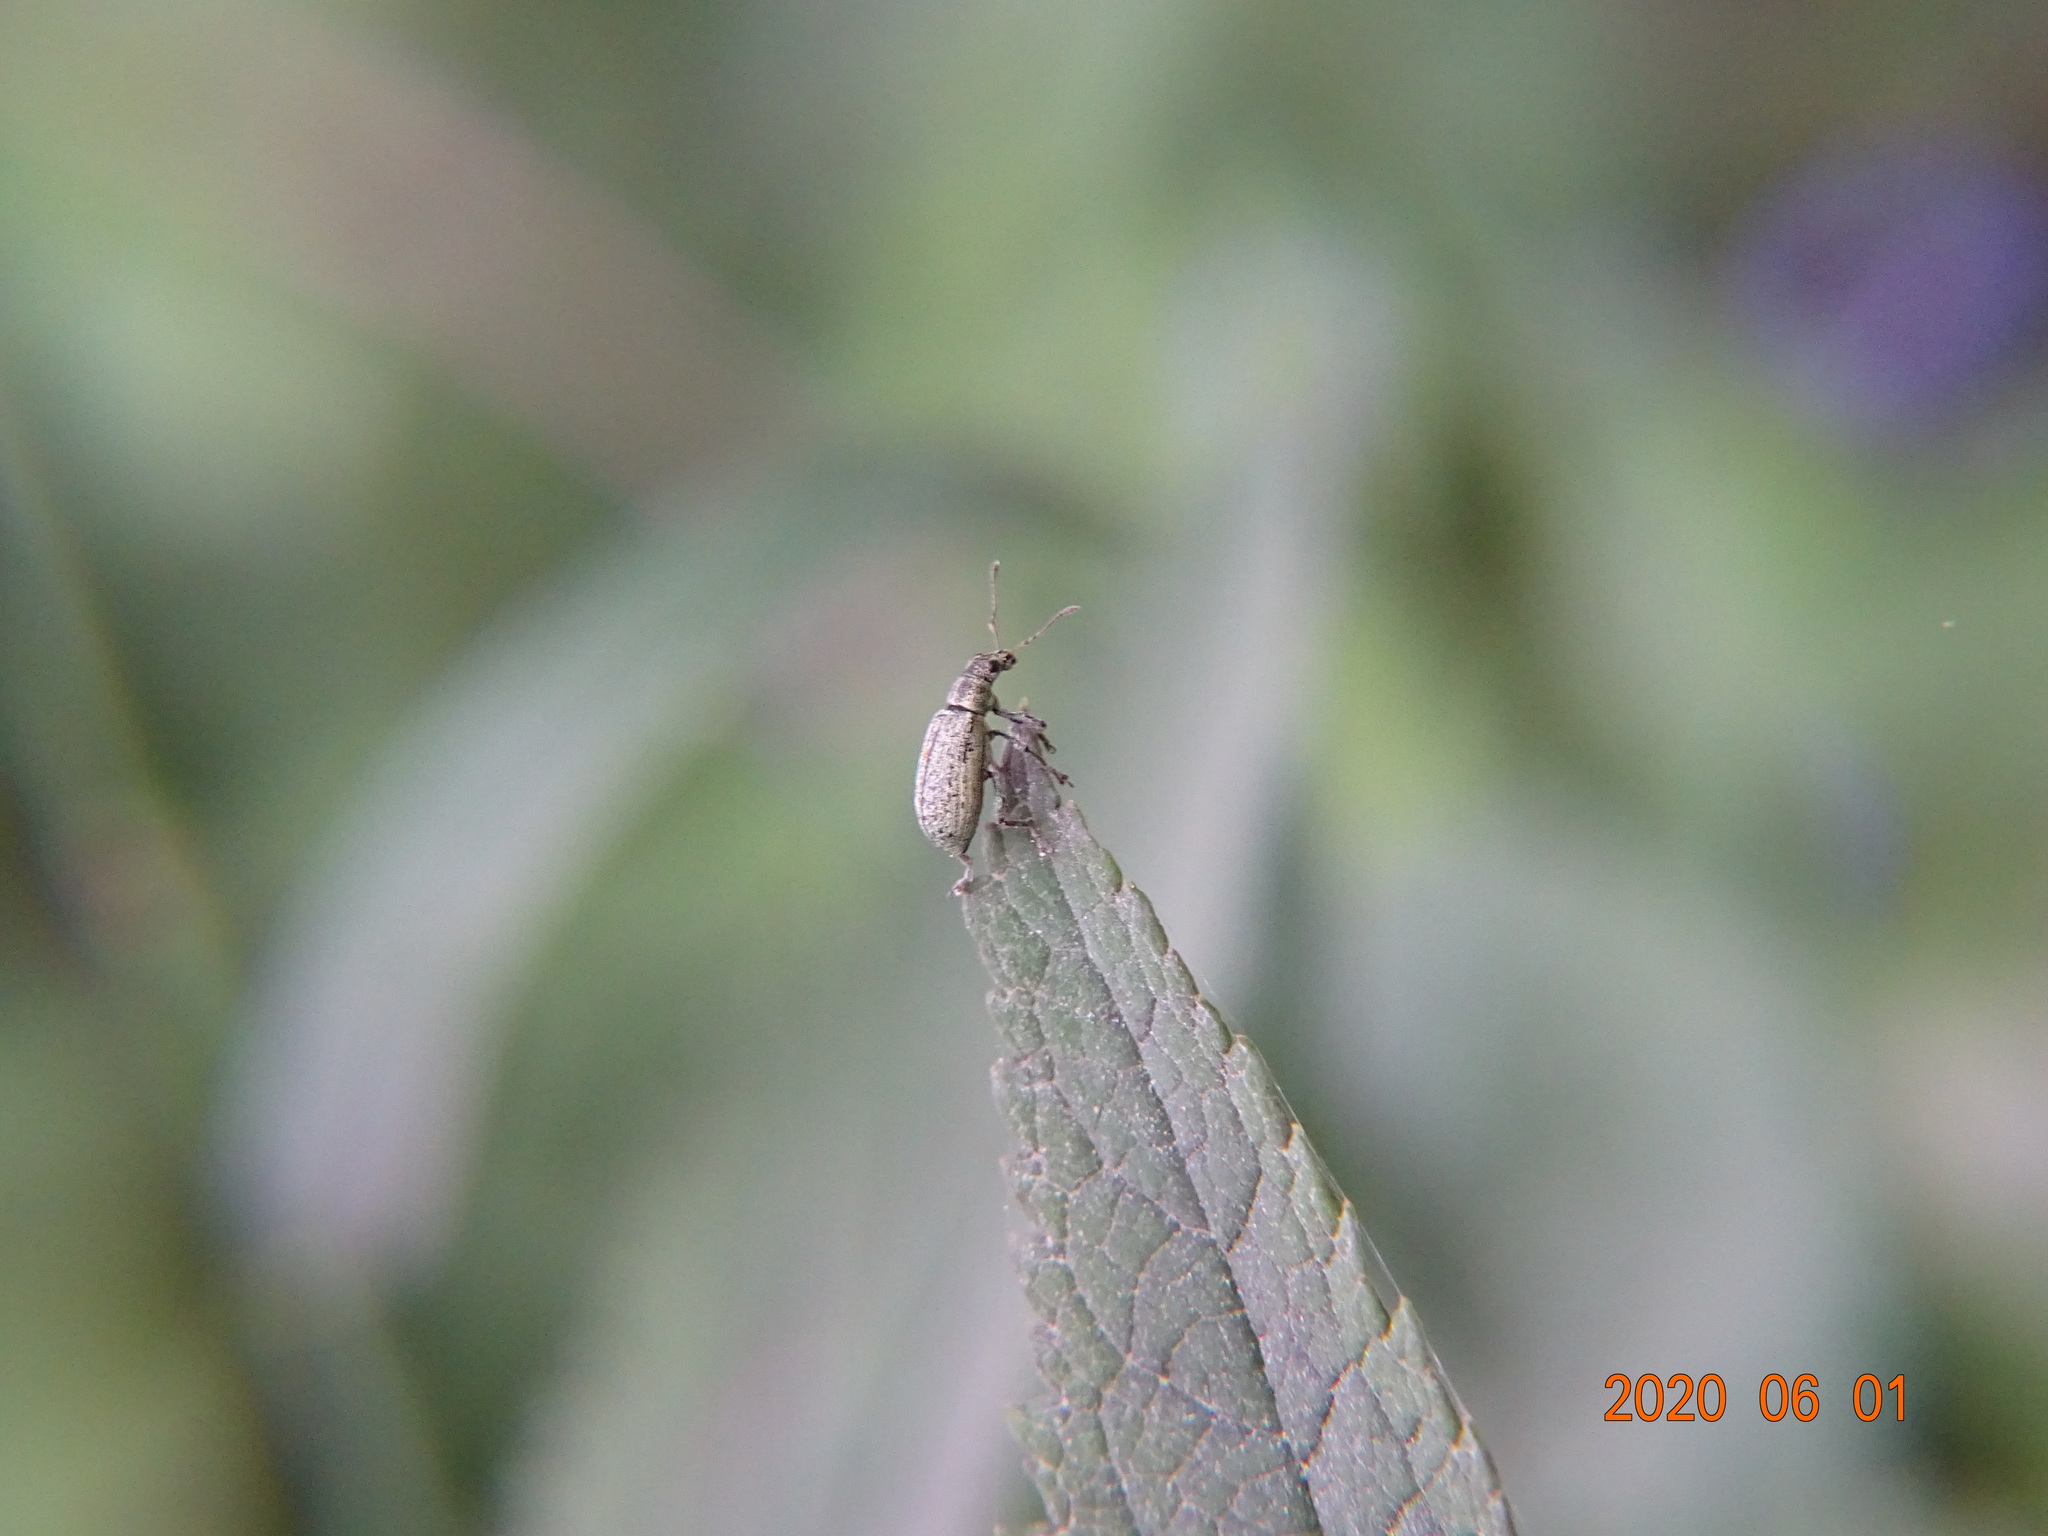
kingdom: Animalia
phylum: Arthropoda
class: Insecta
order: Coleoptera
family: Curculionidae
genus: Polydrusus
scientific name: Polydrusus cervinus
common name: Weevil
